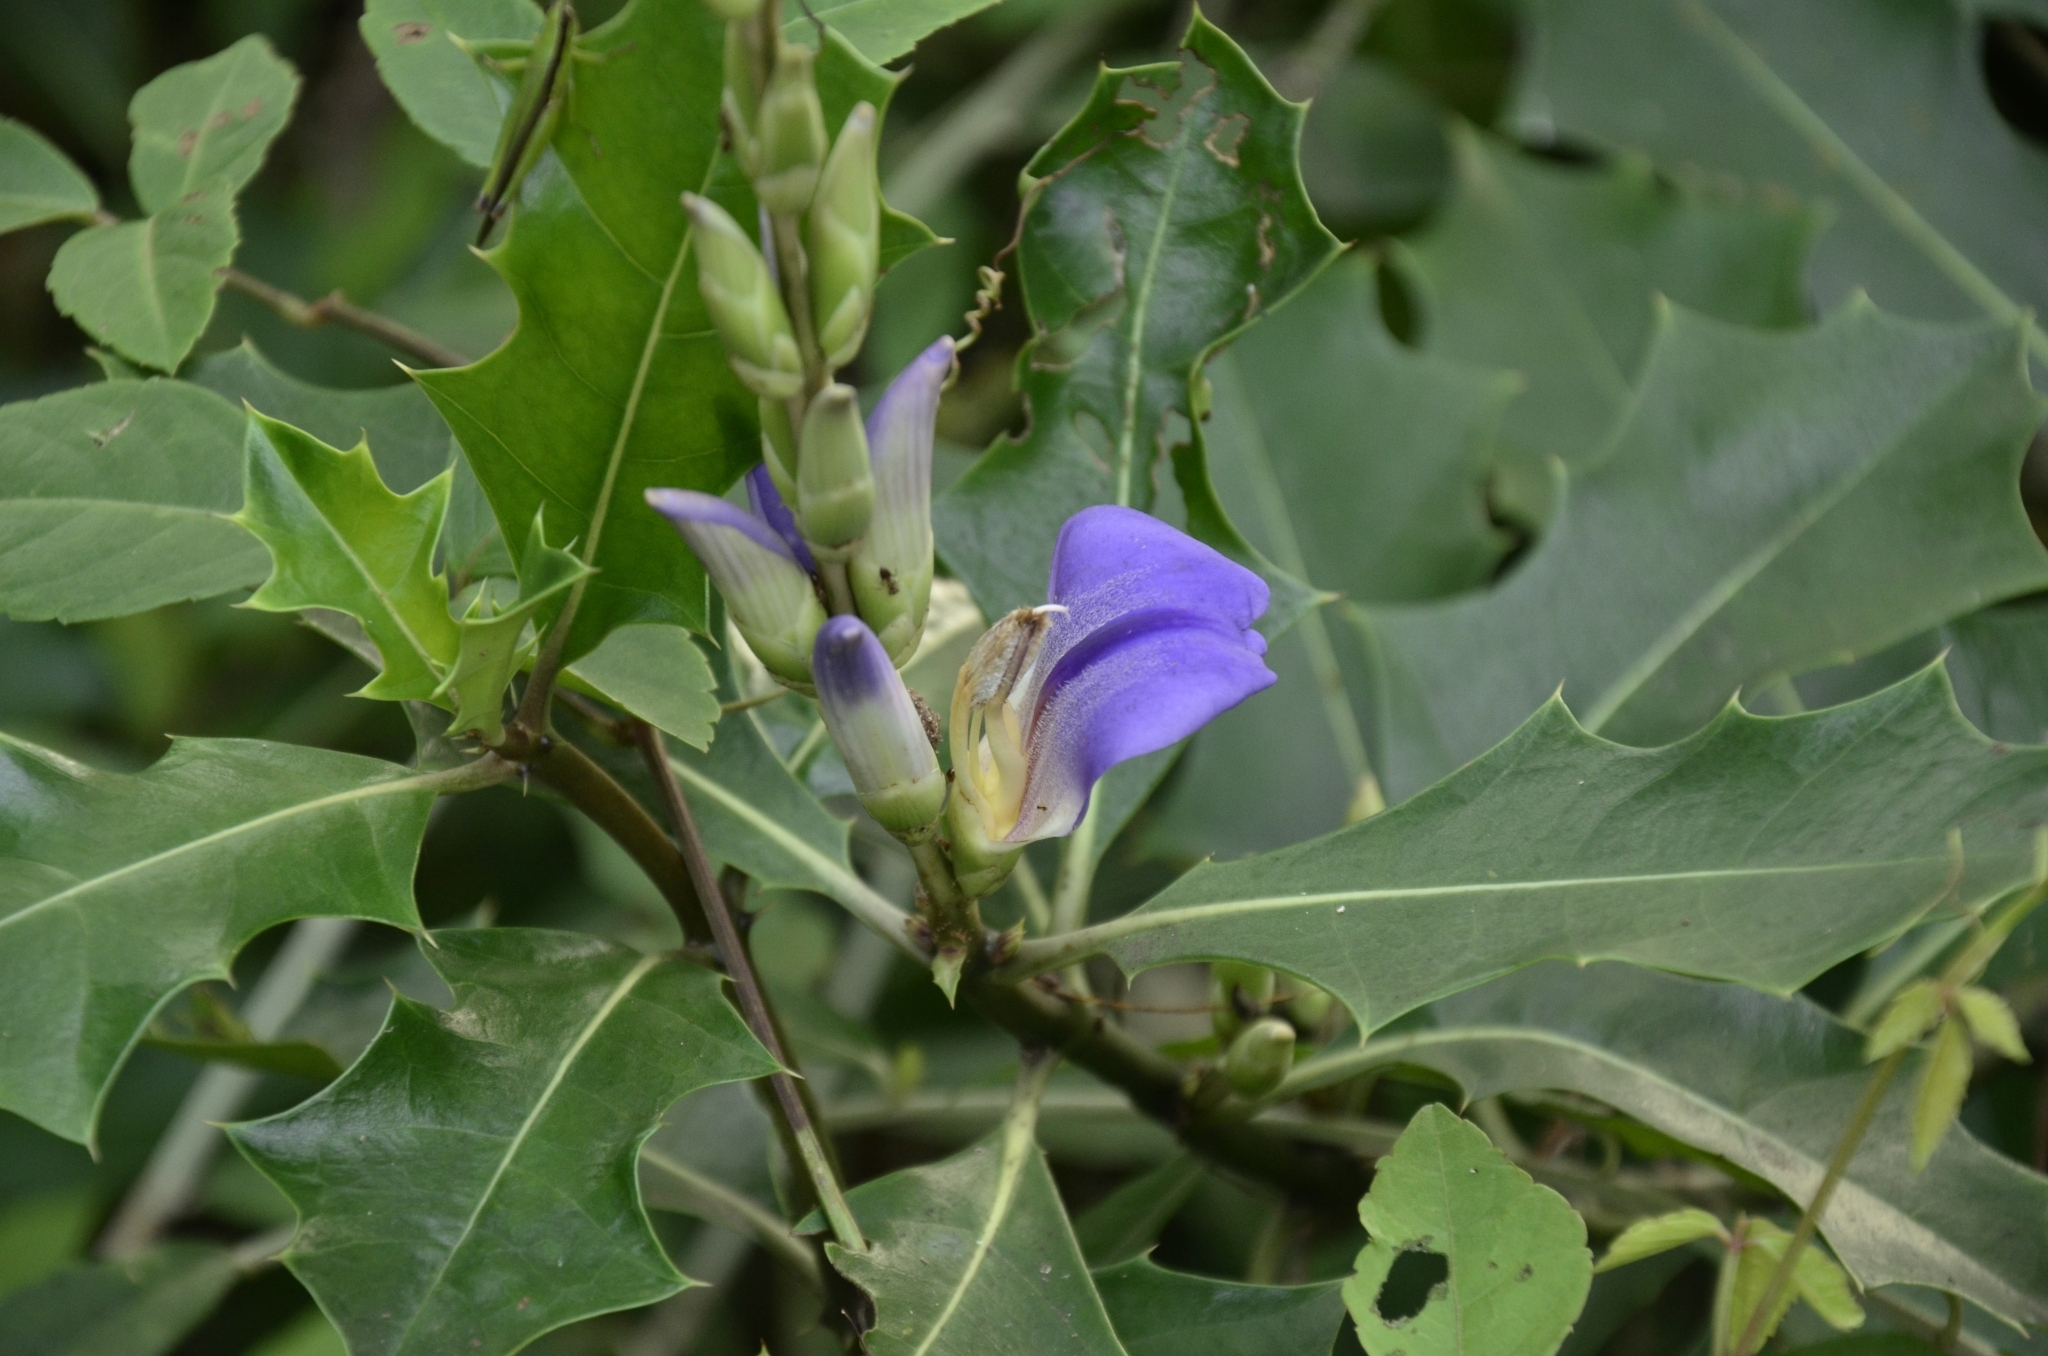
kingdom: Plantae
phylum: Tracheophyta
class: Magnoliopsida
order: Lamiales
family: Acanthaceae
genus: Acanthus
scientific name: Acanthus ilicifolius
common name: Holy mangrove
